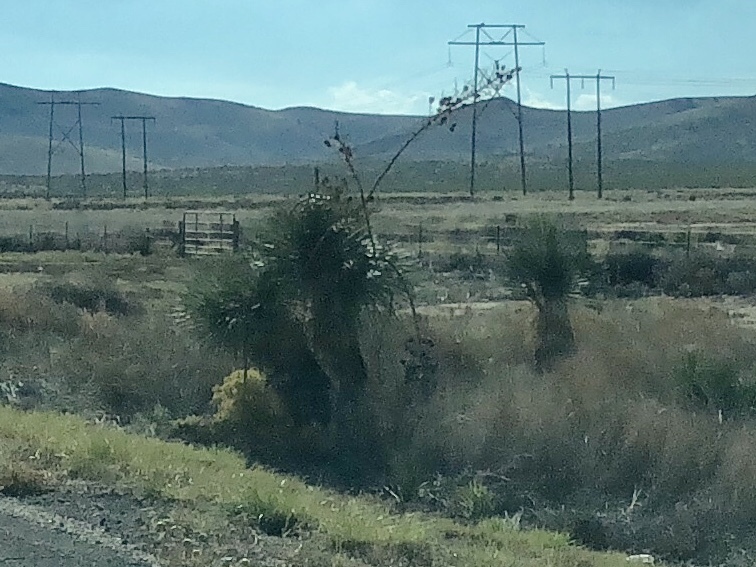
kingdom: Plantae
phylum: Tracheophyta
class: Liliopsida
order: Asparagales
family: Asparagaceae
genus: Yucca
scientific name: Yucca elata
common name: Palmella
